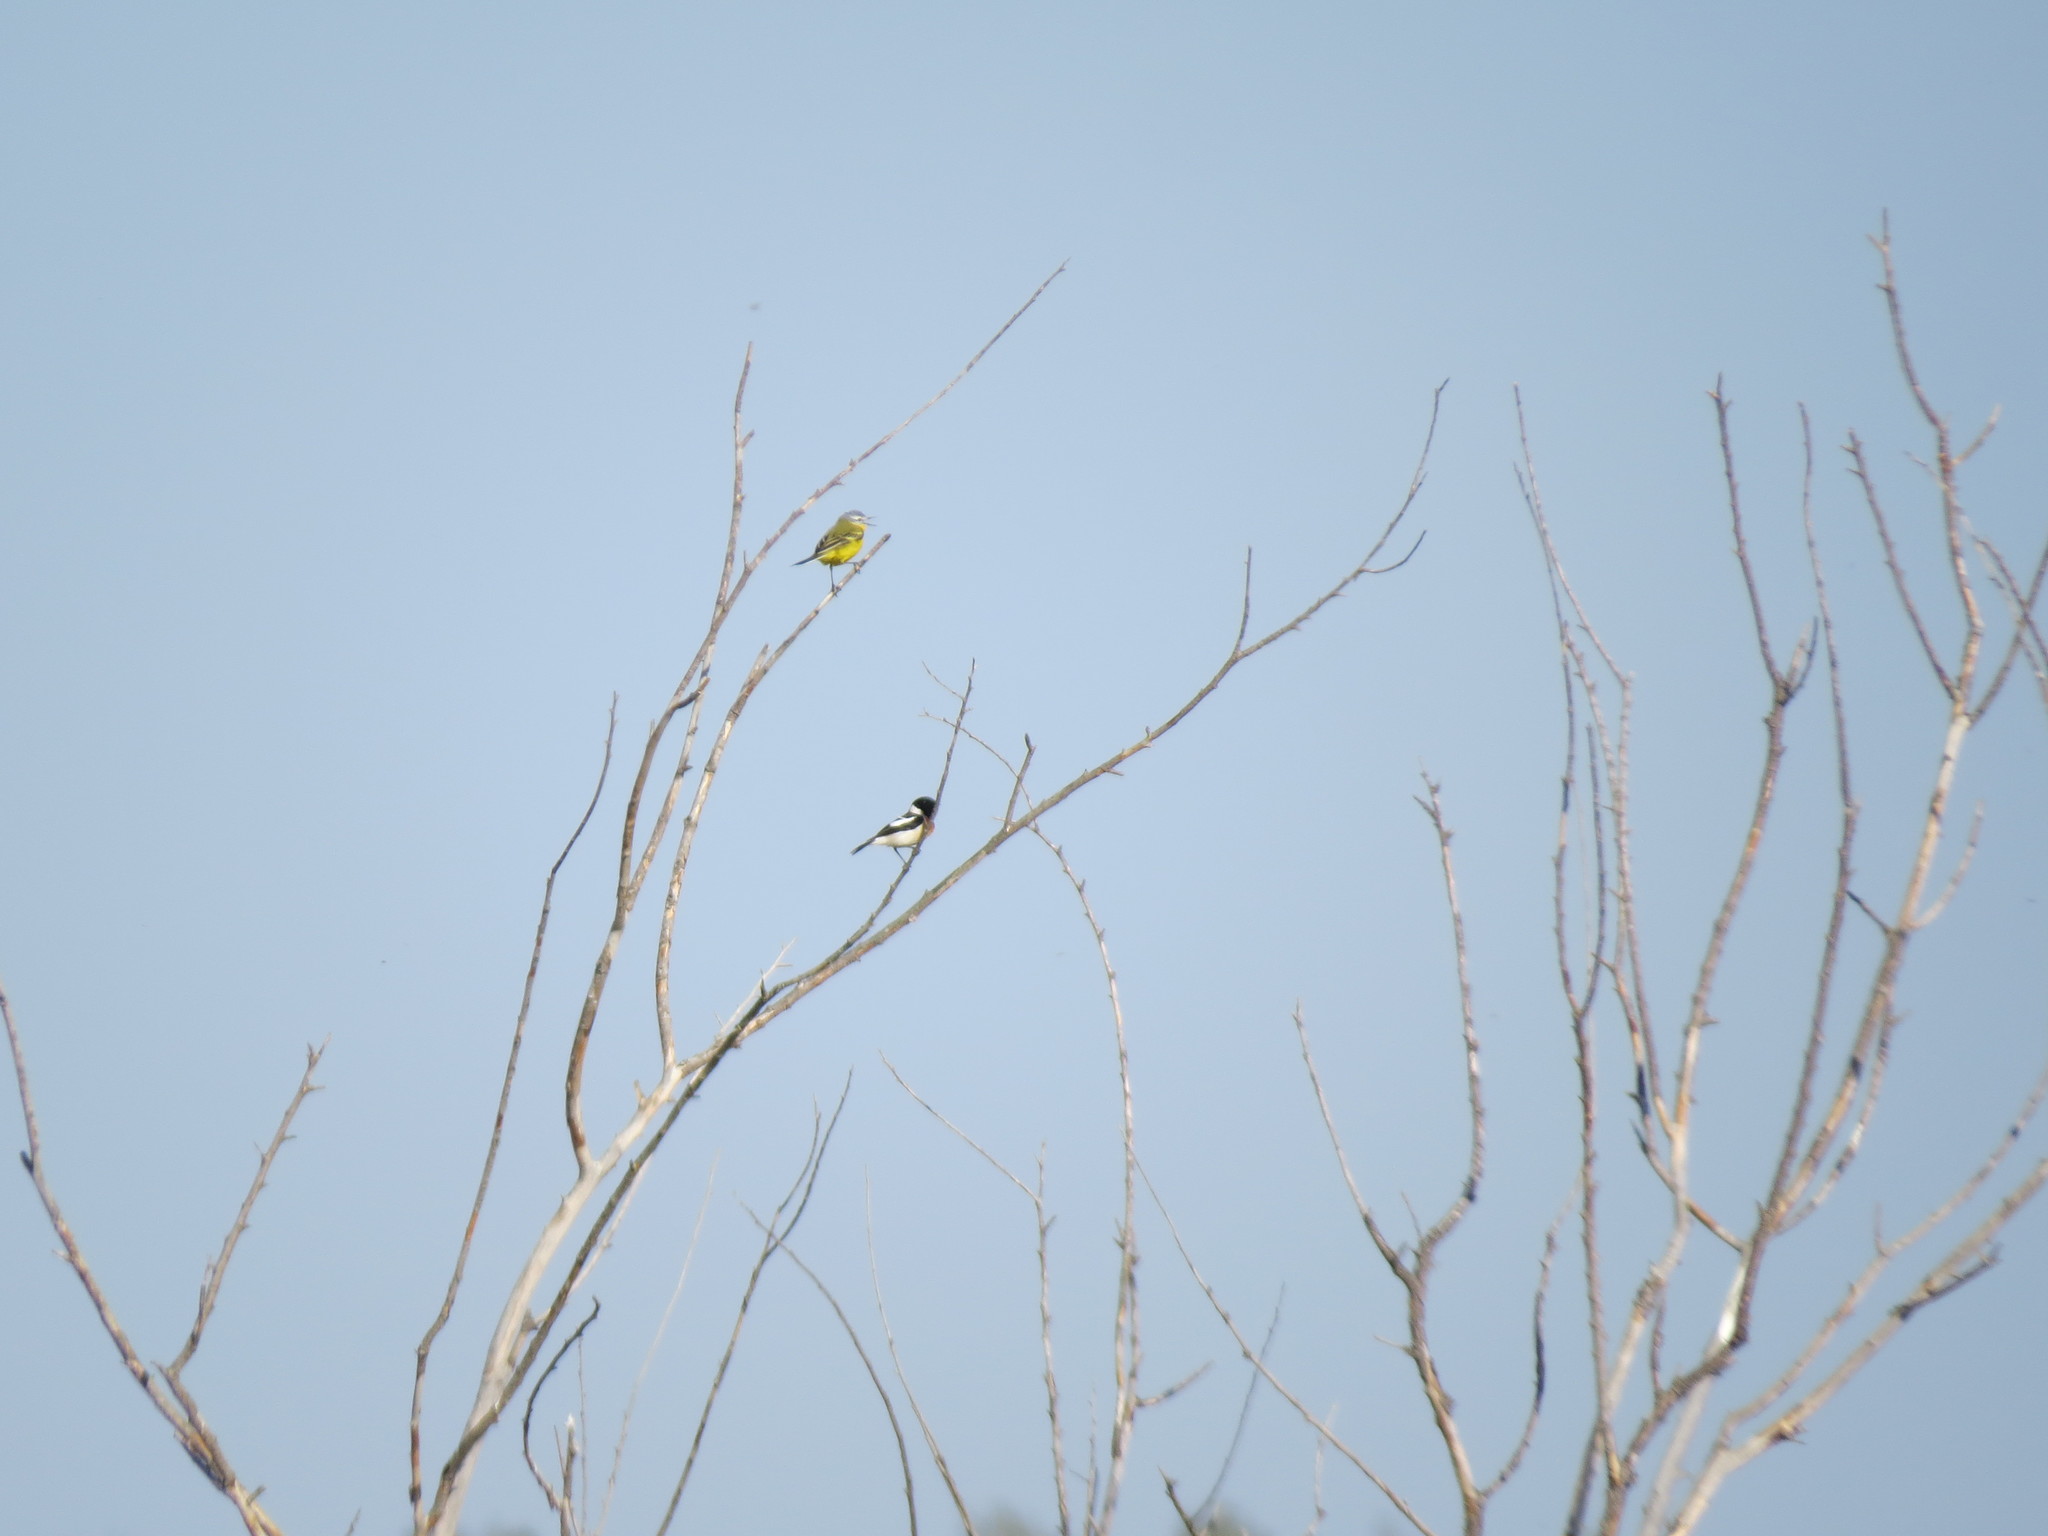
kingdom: Animalia
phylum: Chordata
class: Aves
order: Passeriformes
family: Motacillidae
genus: Motacilla
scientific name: Motacilla flava
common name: Western yellow wagtail
